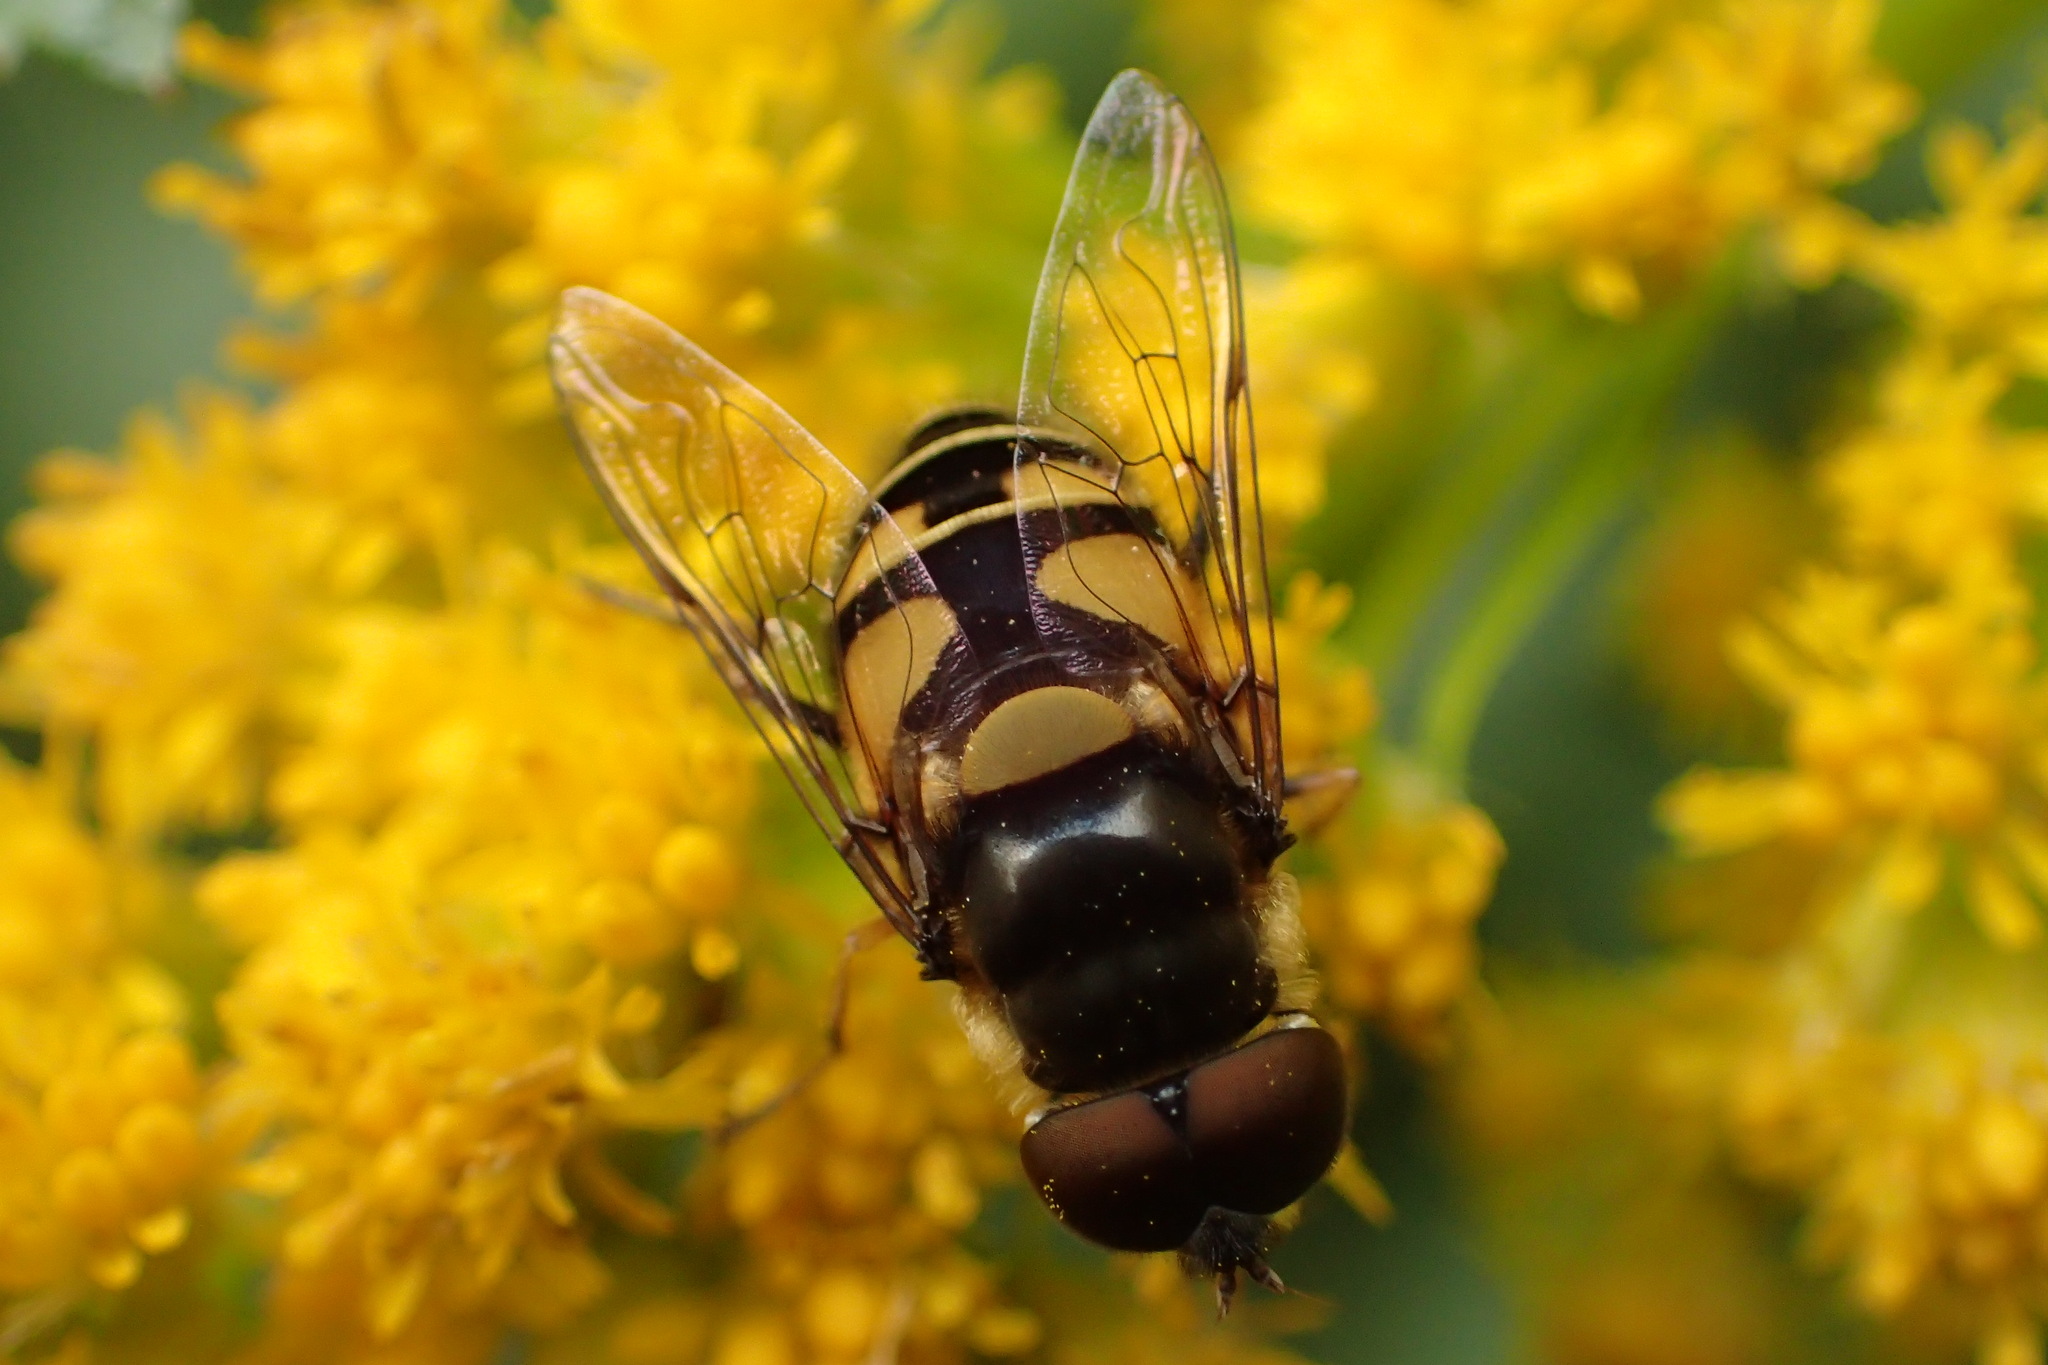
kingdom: Animalia
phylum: Arthropoda
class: Insecta
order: Diptera
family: Syrphidae
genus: Eristalis
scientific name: Eristalis transversa
